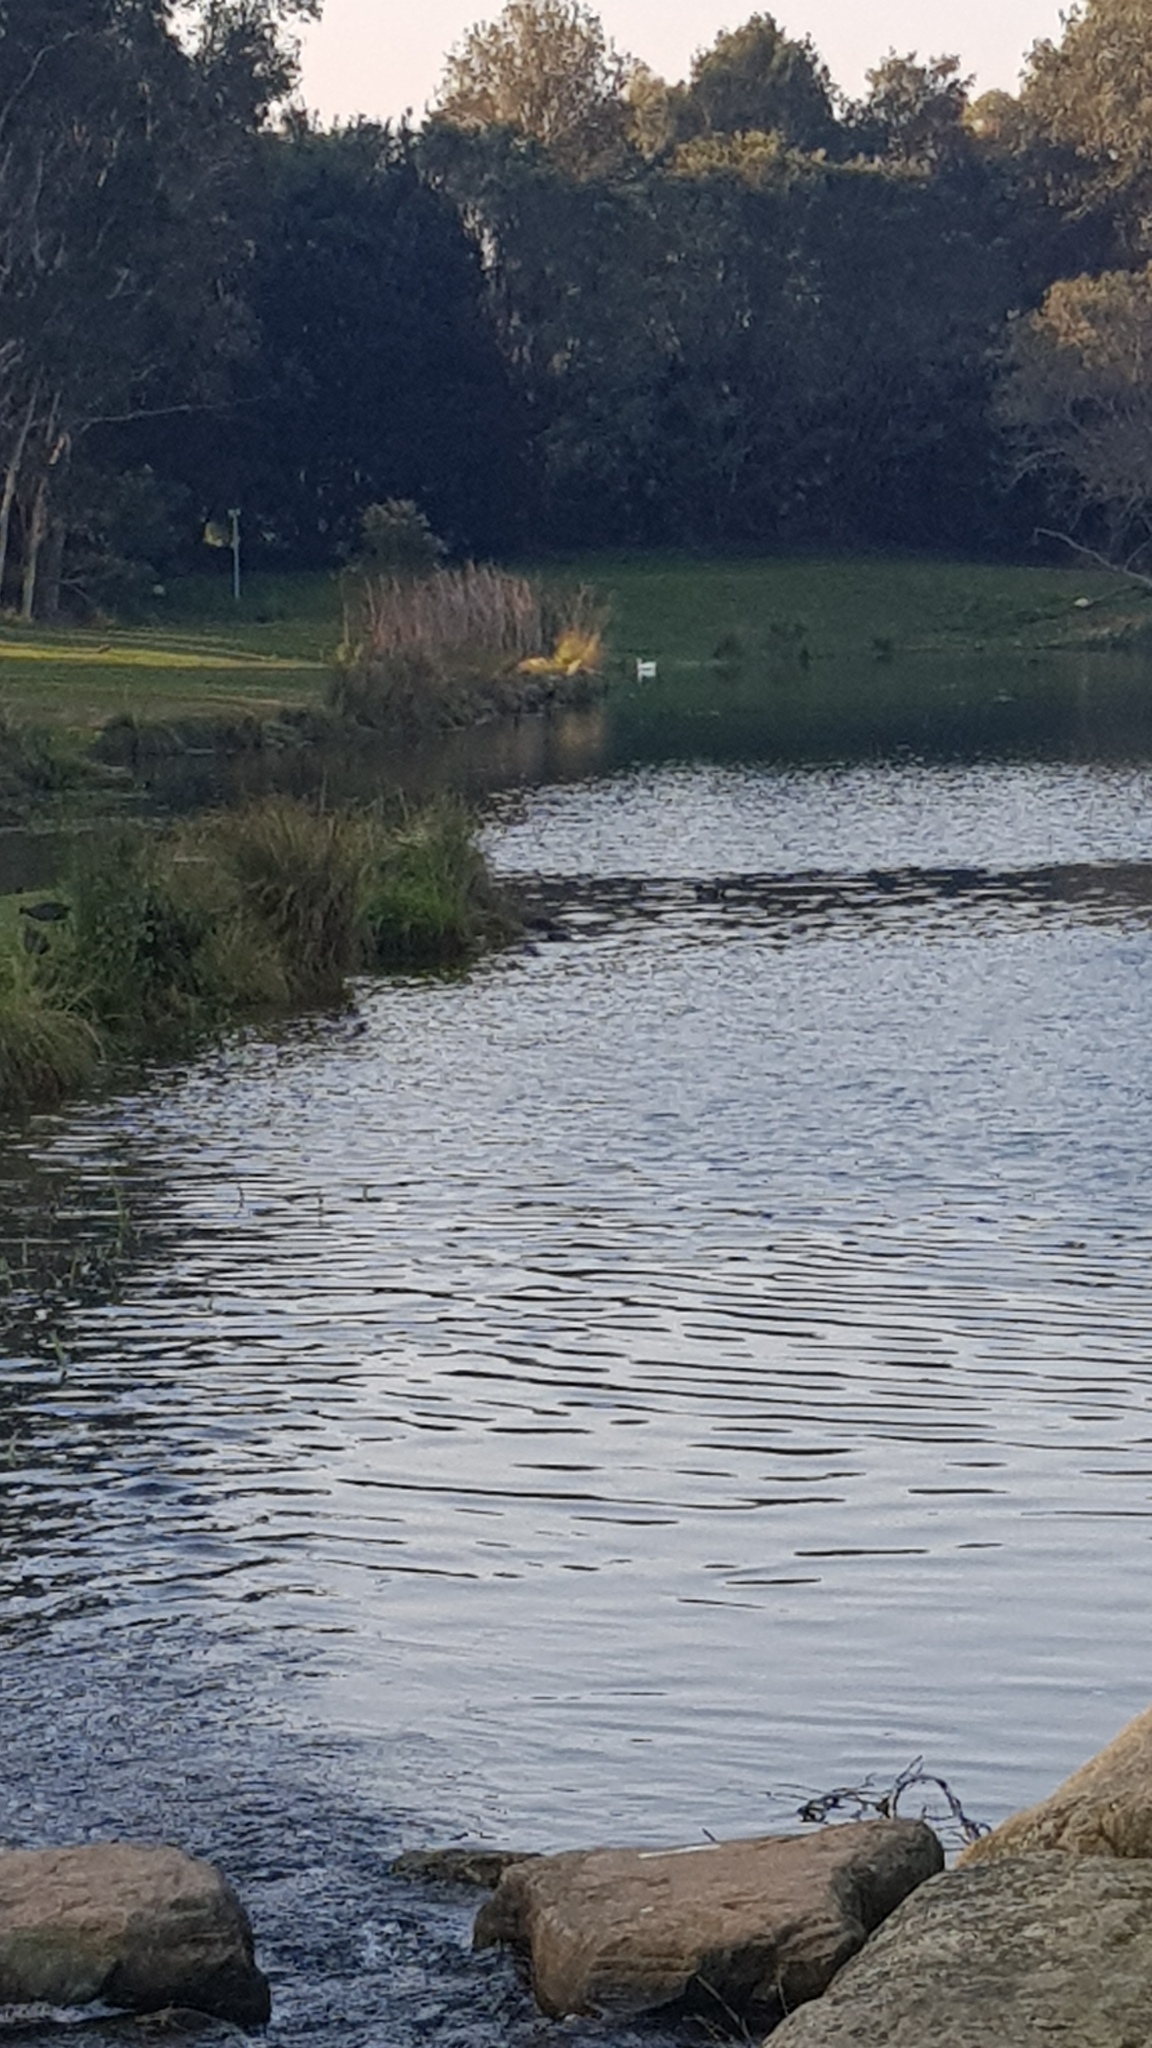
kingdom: Animalia
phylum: Chordata
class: Aves
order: Anseriformes
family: Anatidae
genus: Anas
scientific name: Anas platyrhynchos
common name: Mallard
